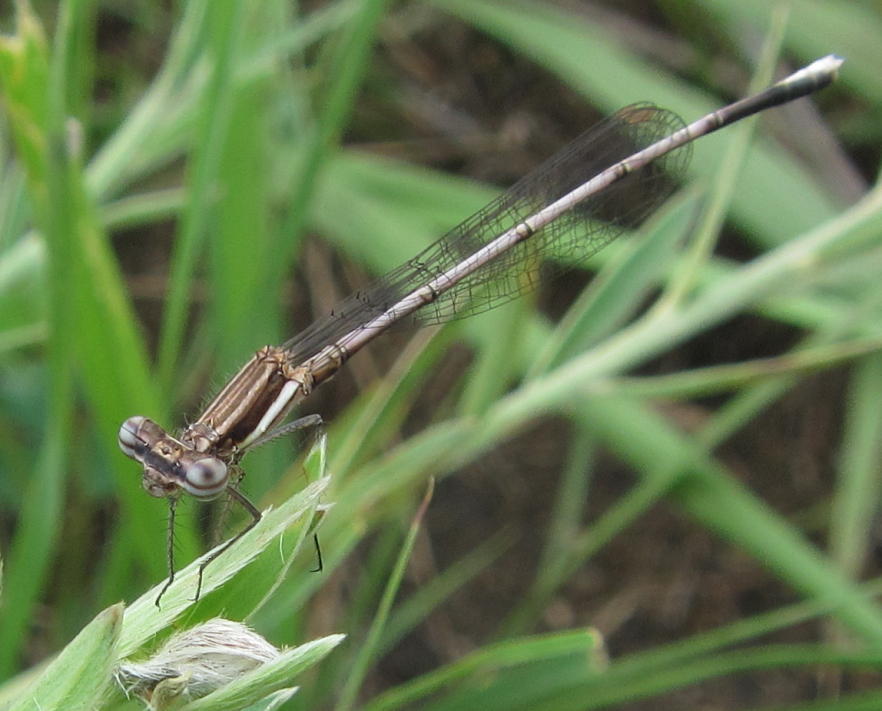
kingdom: Animalia
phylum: Arthropoda
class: Insecta
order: Odonata
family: Platycnemididae
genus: Elattoneura
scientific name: Elattoneura glauca
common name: Common threadtail
